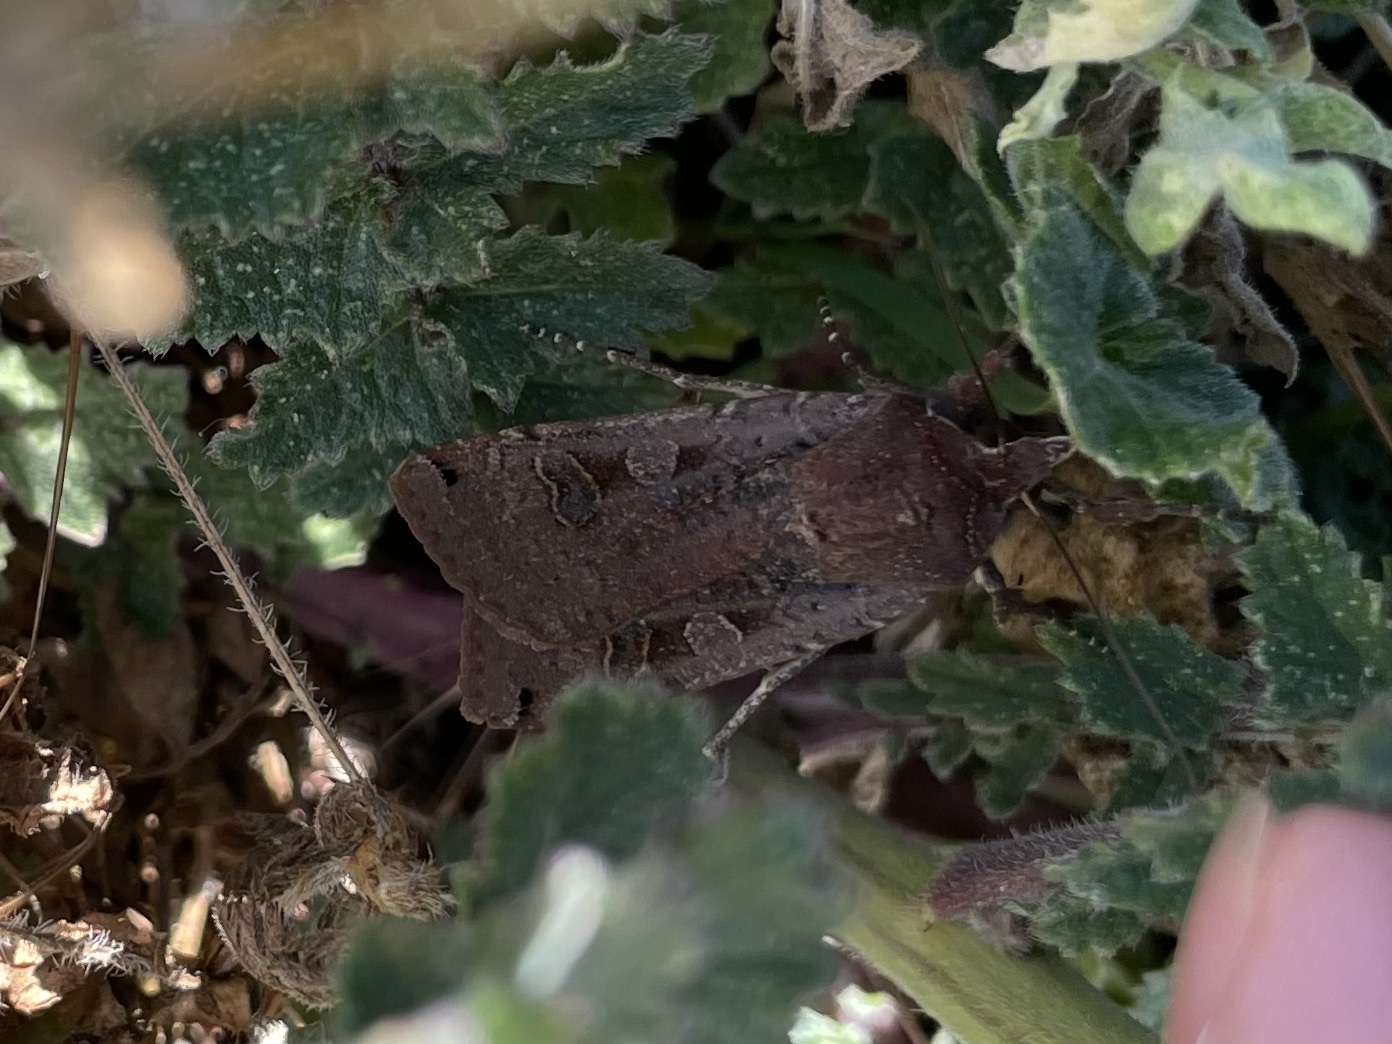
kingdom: Animalia
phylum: Arthropoda
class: Insecta
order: Lepidoptera
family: Noctuidae
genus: Noctua
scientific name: Noctua pronuba
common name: Large yellow underwing
